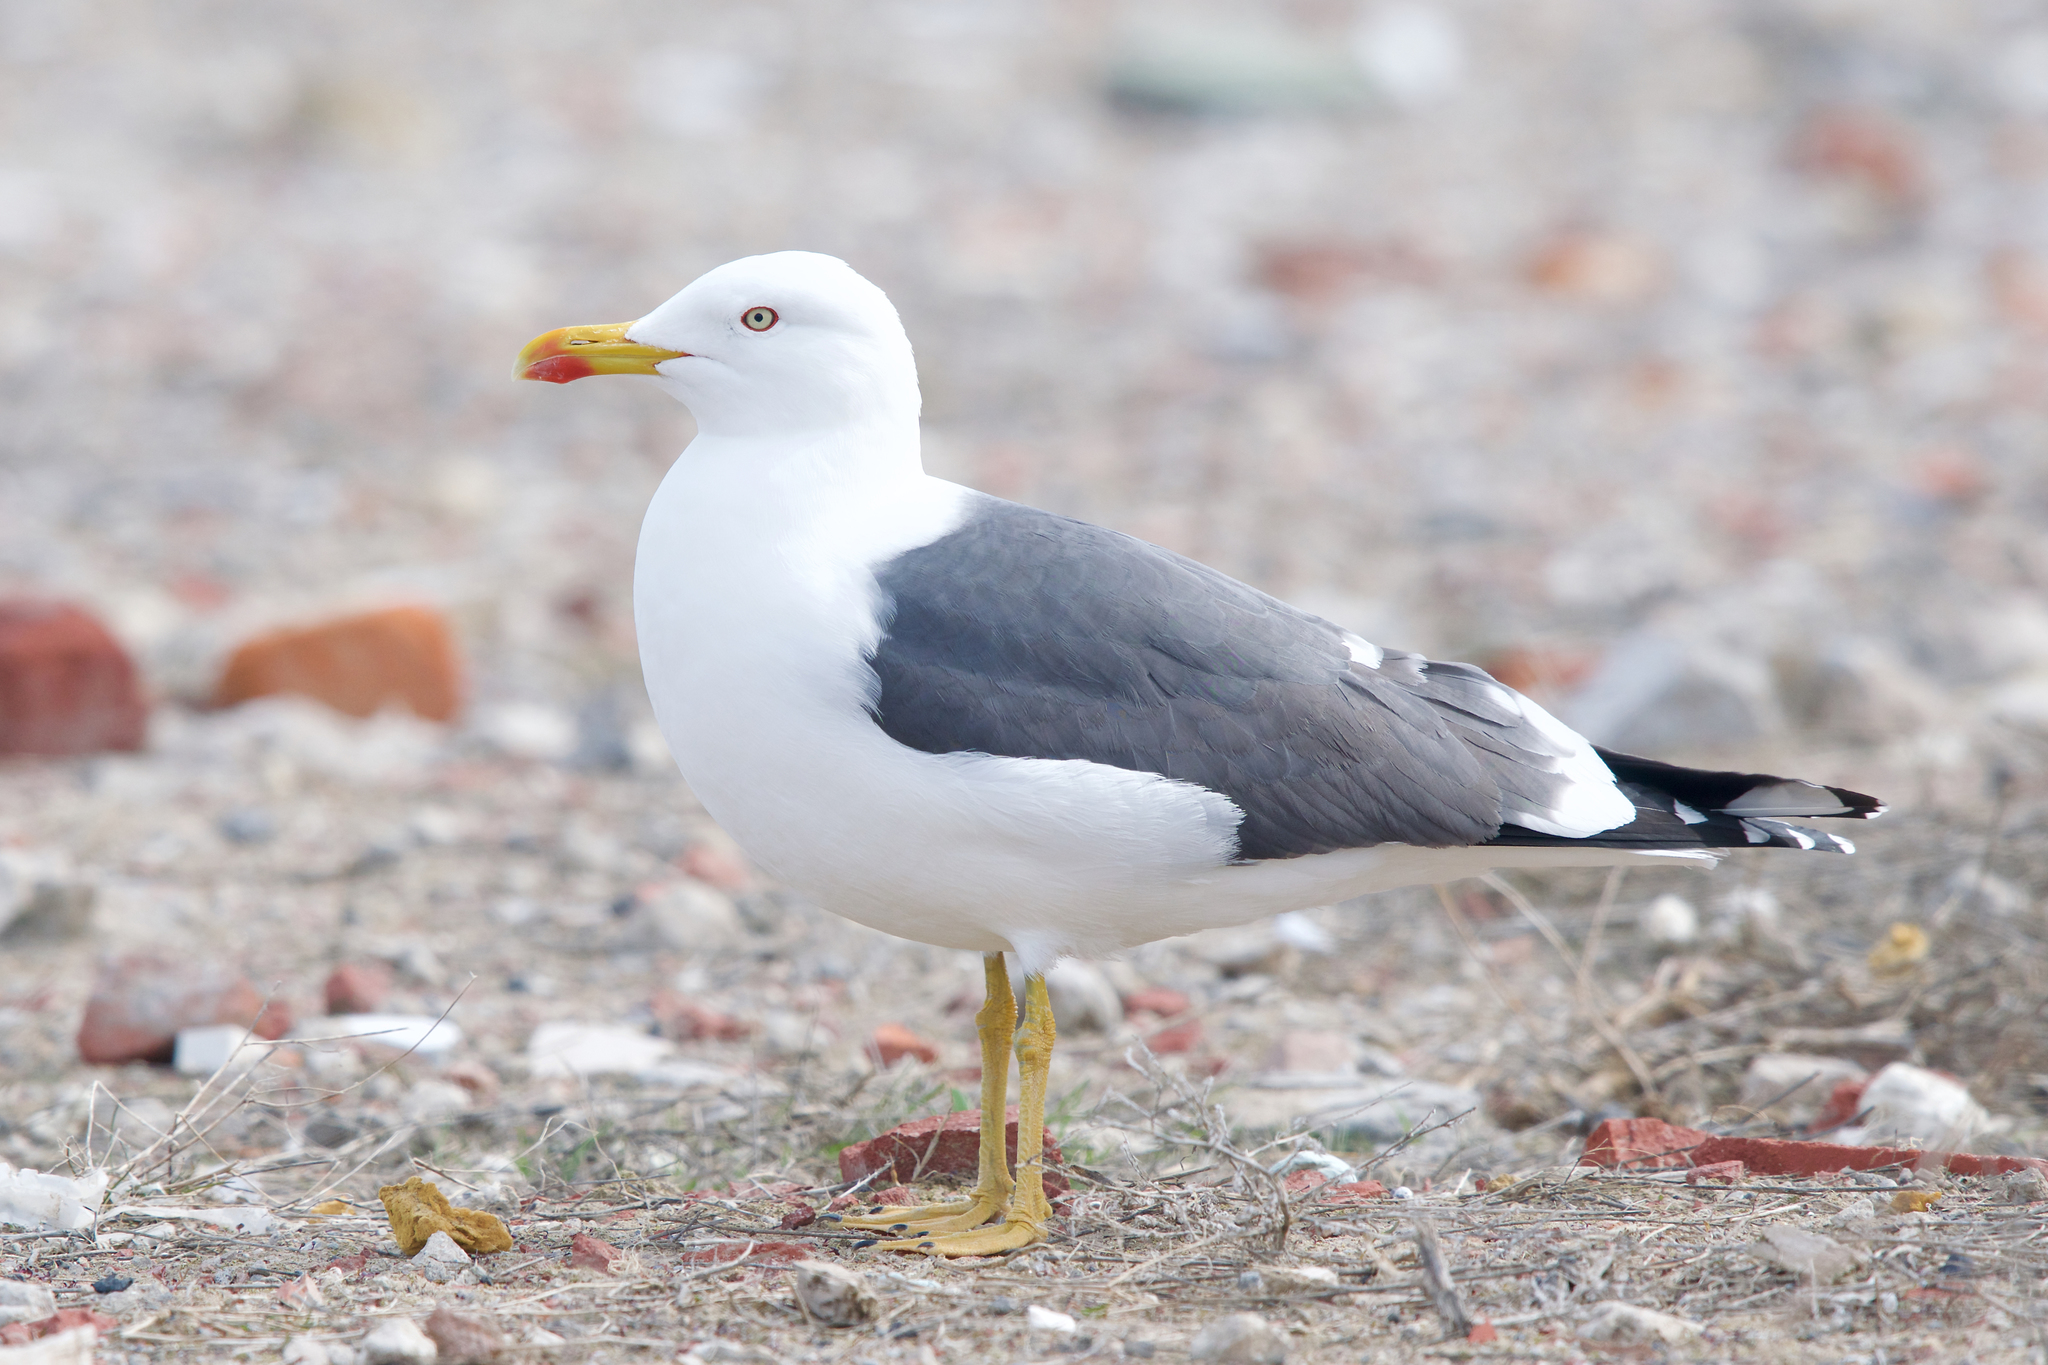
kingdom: Animalia
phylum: Chordata
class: Aves
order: Charadriiformes
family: Laridae
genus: Larus
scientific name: Larus fuscus
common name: Lesser black-backed gull
